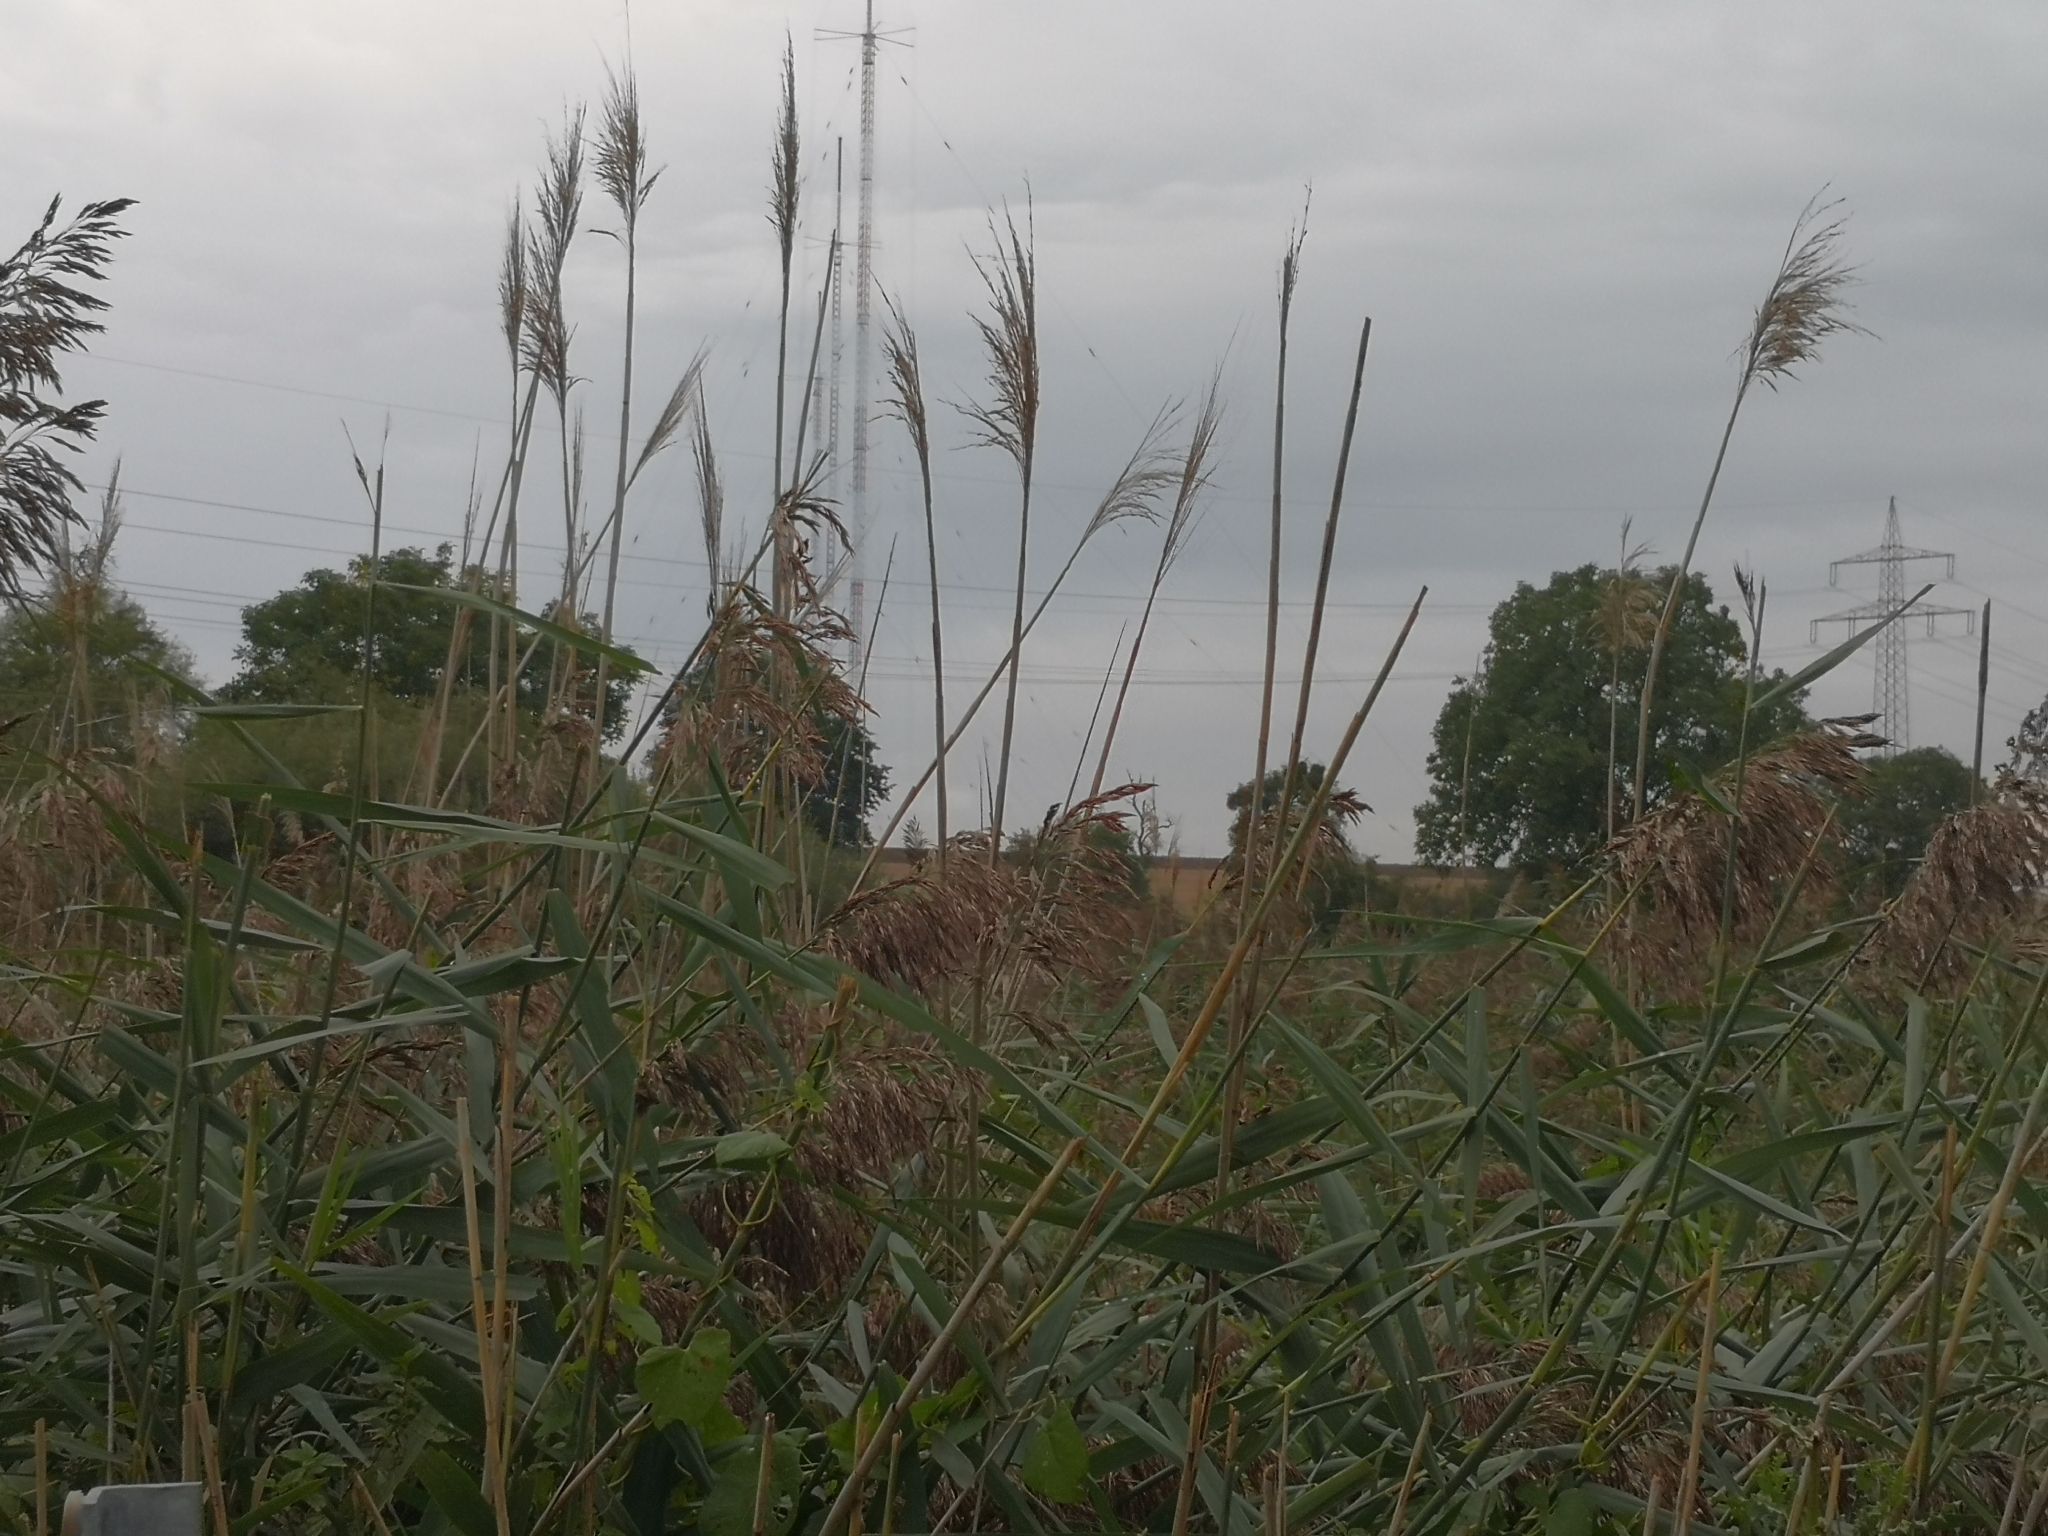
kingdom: Plantae
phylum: Tracheophyta
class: Liliopsida
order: Poales
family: Poaceae
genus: Phragmites
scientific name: Phragmites australis
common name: Common reed
